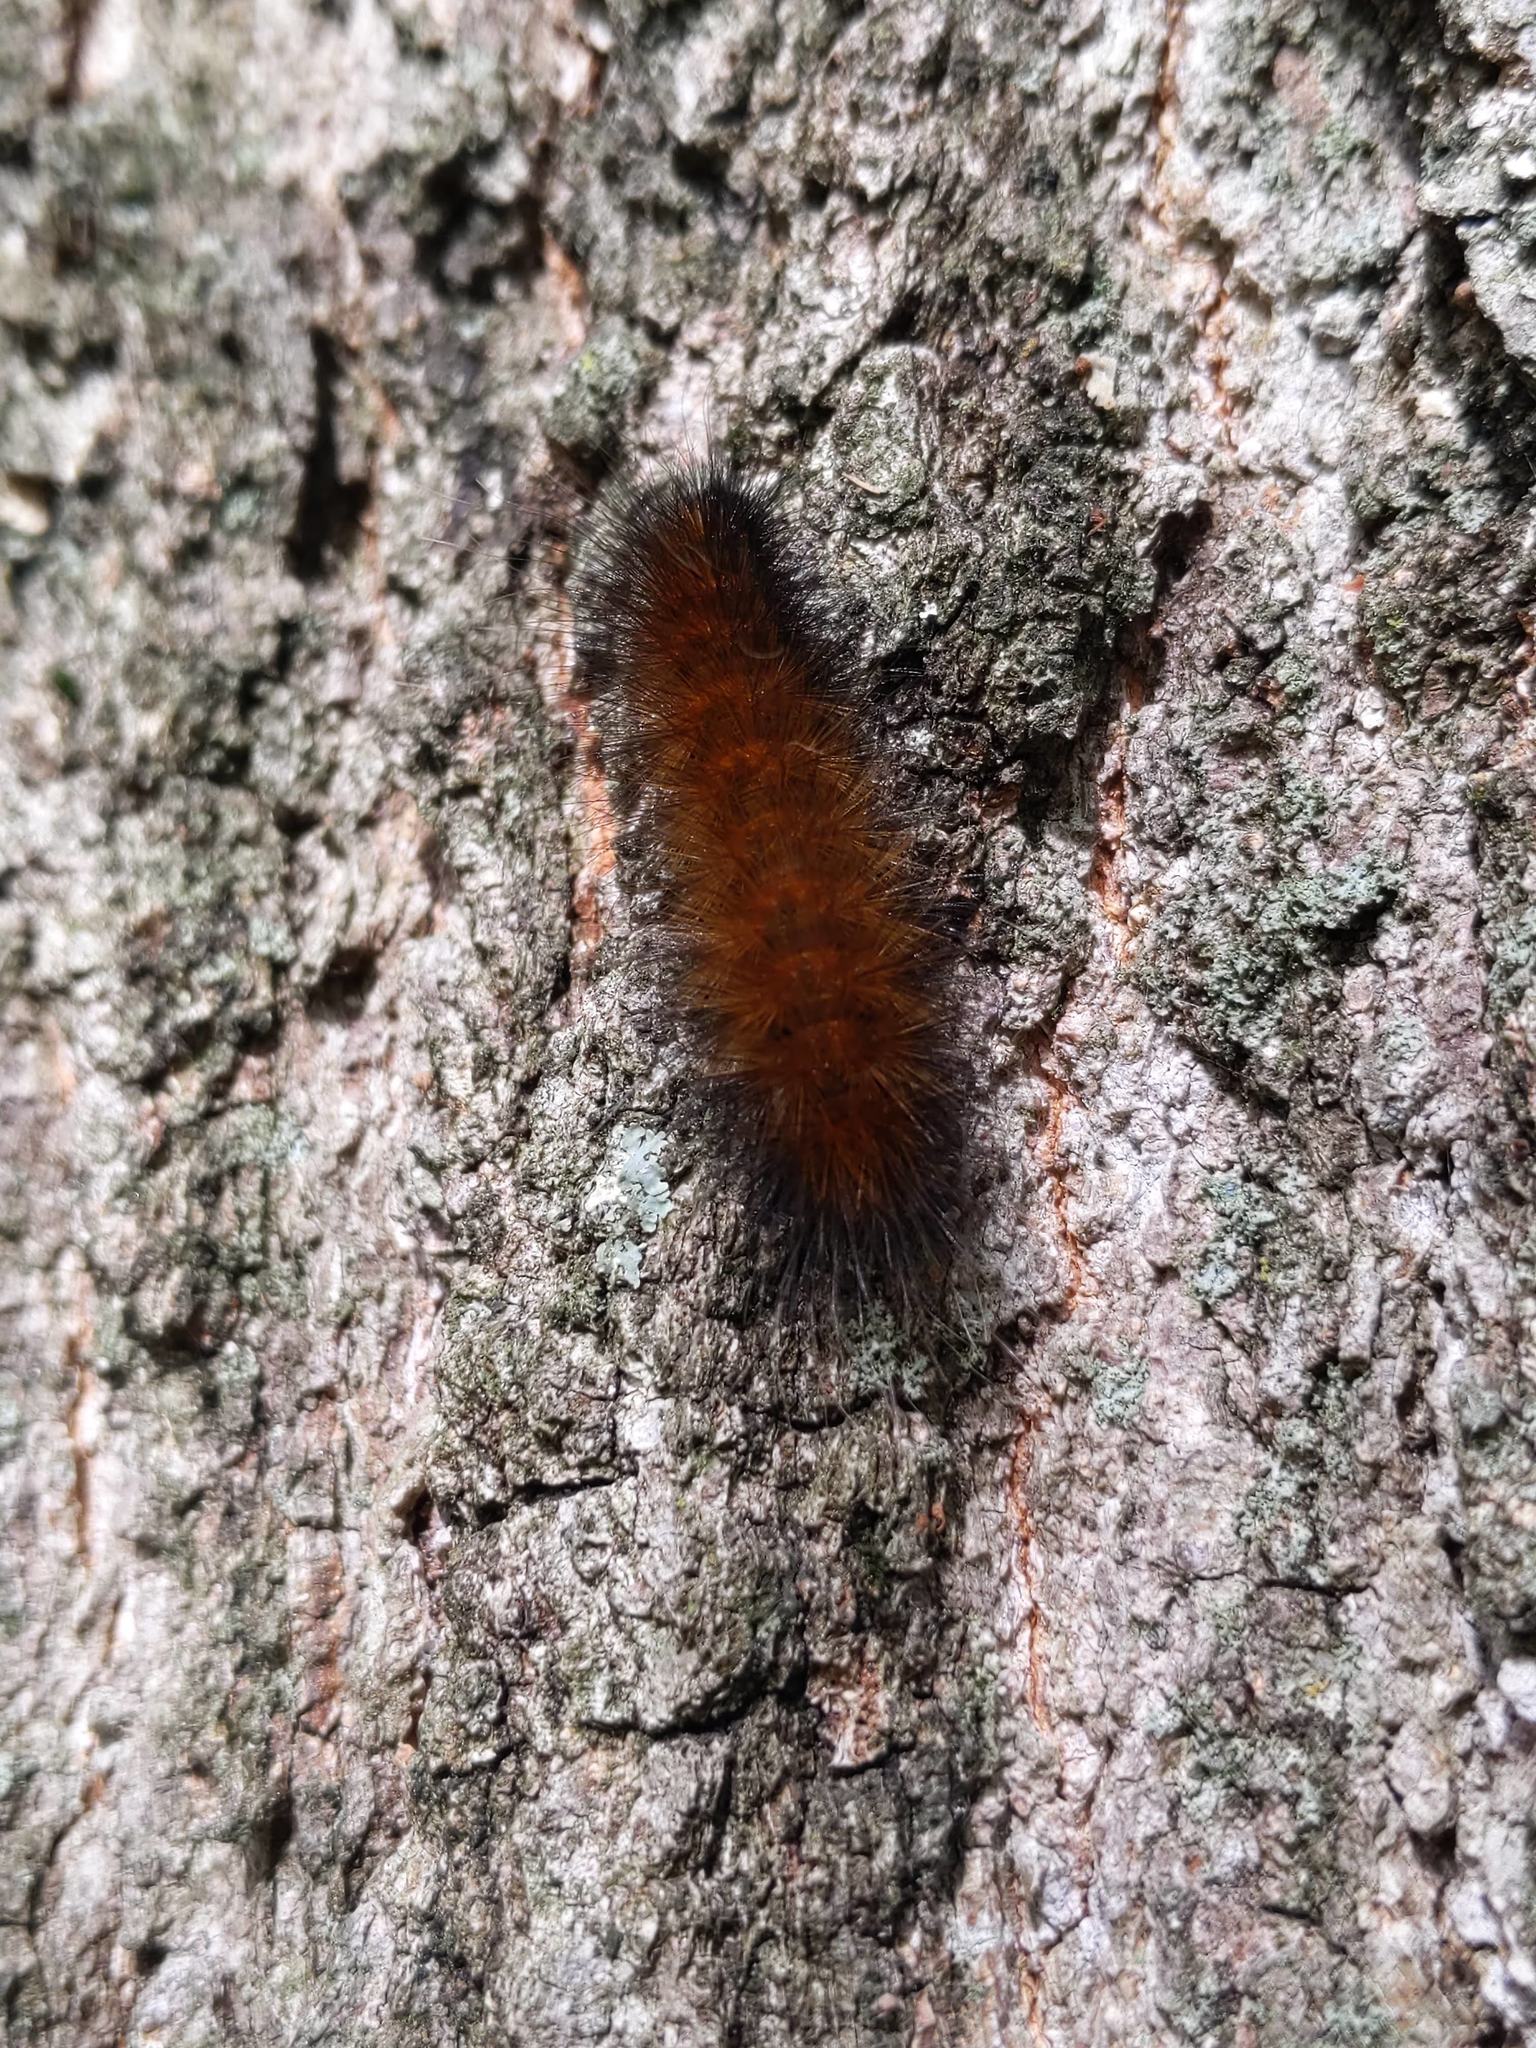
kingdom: Animalia
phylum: Arthropoda
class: Insecta
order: Lepidoptera
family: Erebidae
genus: Spilosoma
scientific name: Spilosoma virginica
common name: Virginia tiger moth
